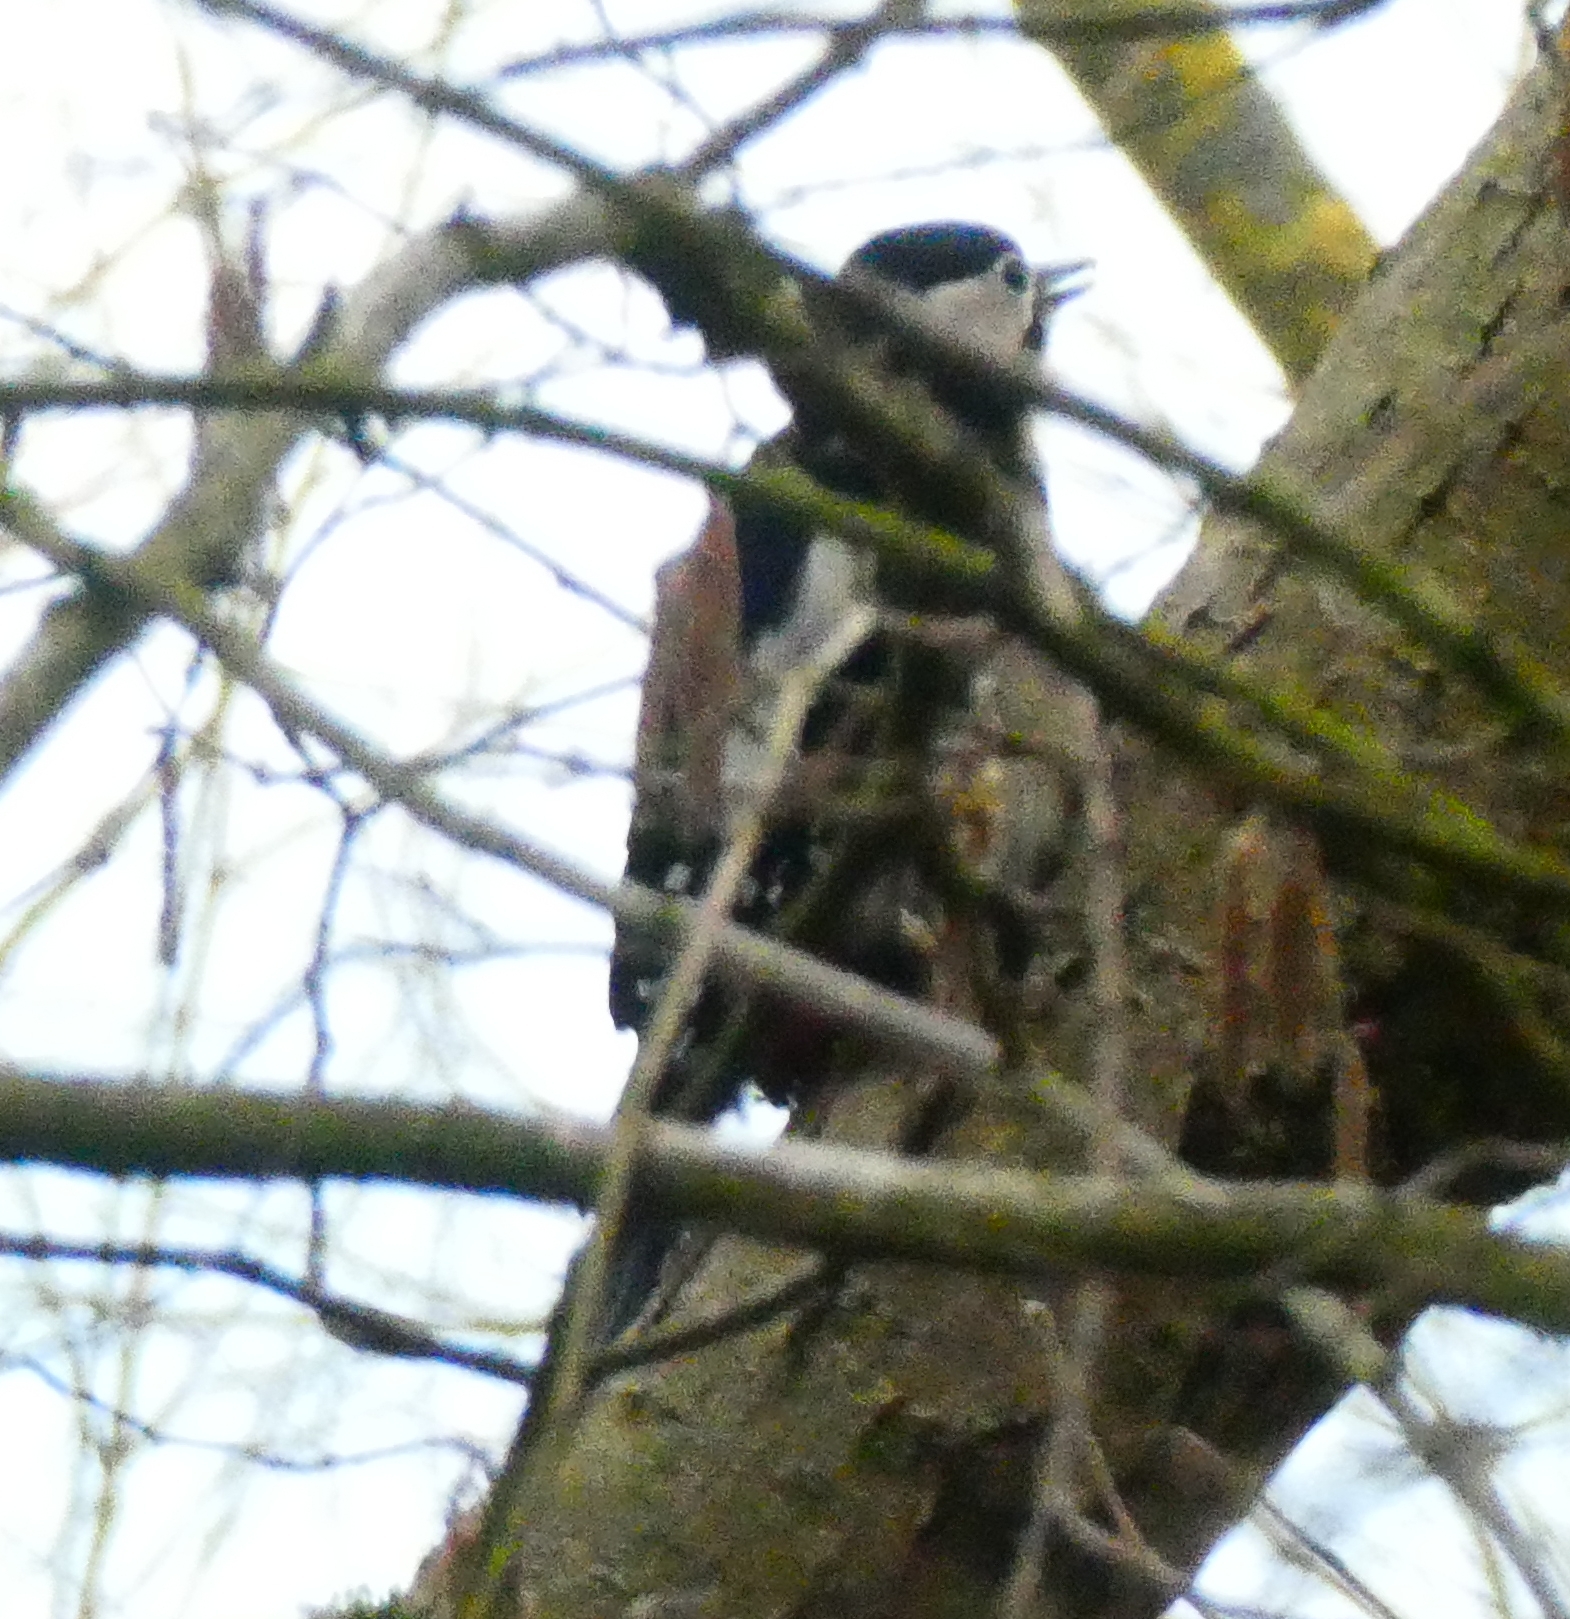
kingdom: Animalia
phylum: Chordata
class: Aves
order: Piciformes
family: Picidae
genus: Dendrocopos
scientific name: Dendrocopos major
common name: Great spotted woodpecker
